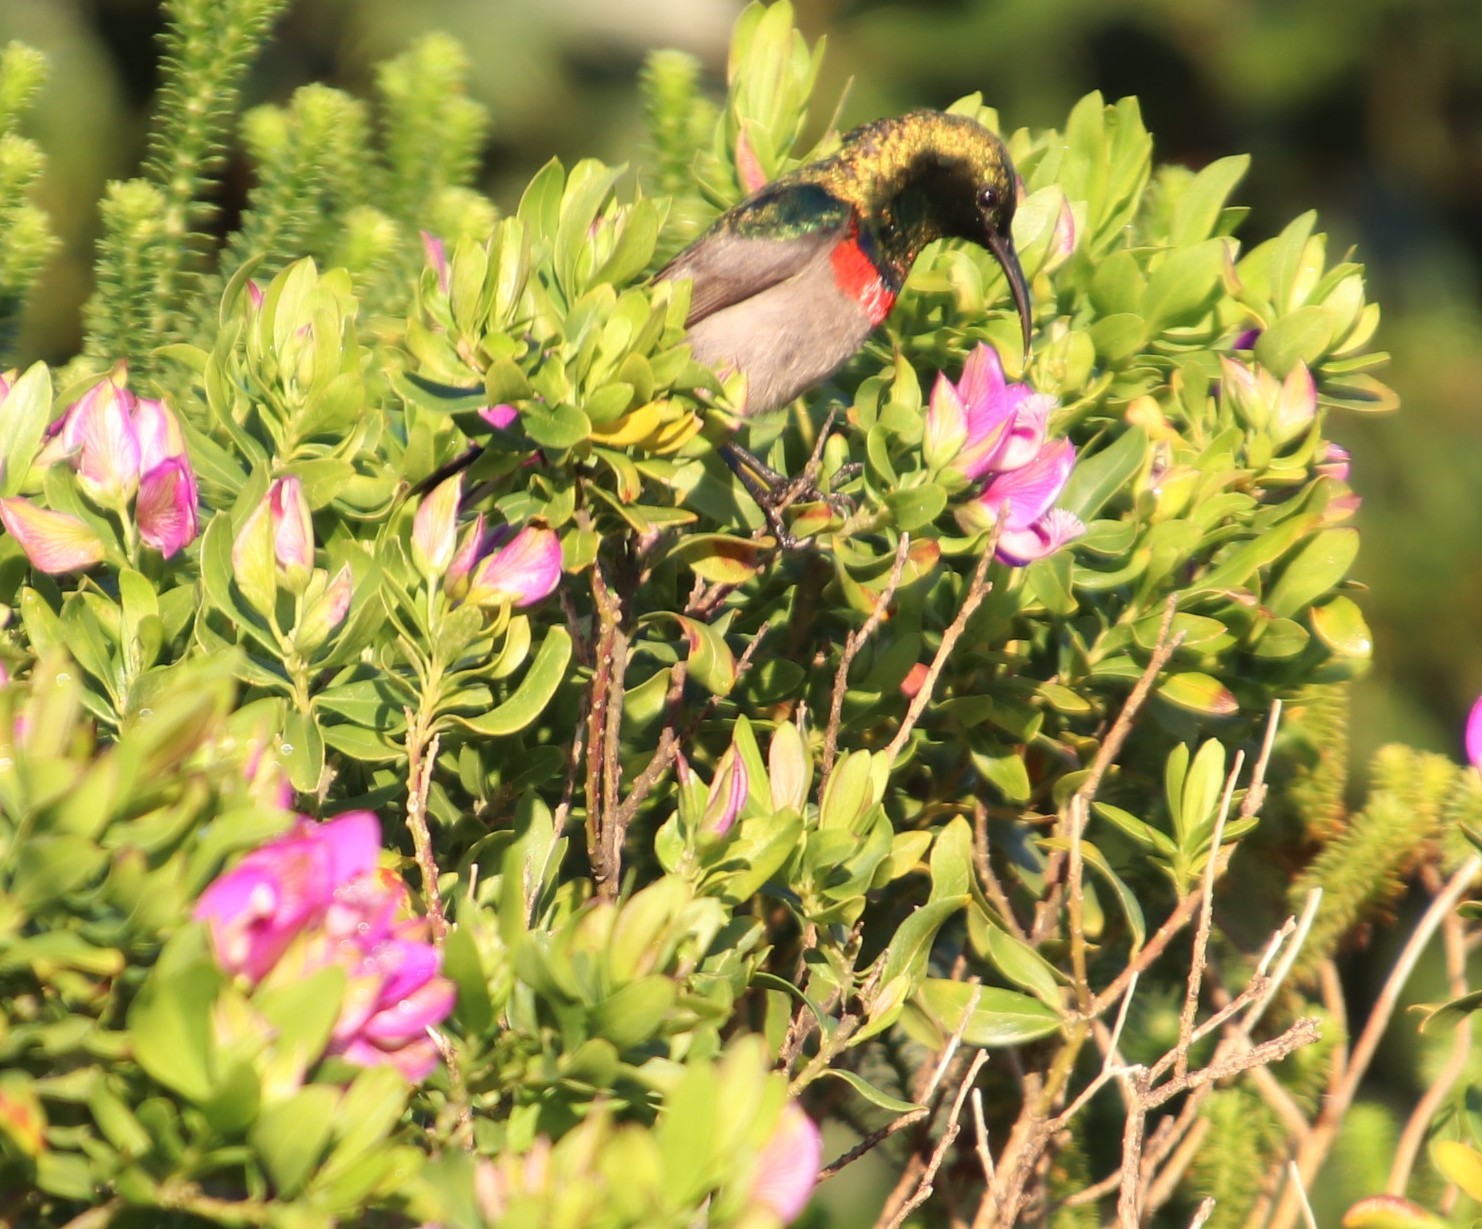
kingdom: Animalia
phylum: Chordata
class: Aves
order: Passeriformes
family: Nectariniidae
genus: Cinnyris
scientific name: Cinnyris chalybeus
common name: Southern double-collared sunbird
